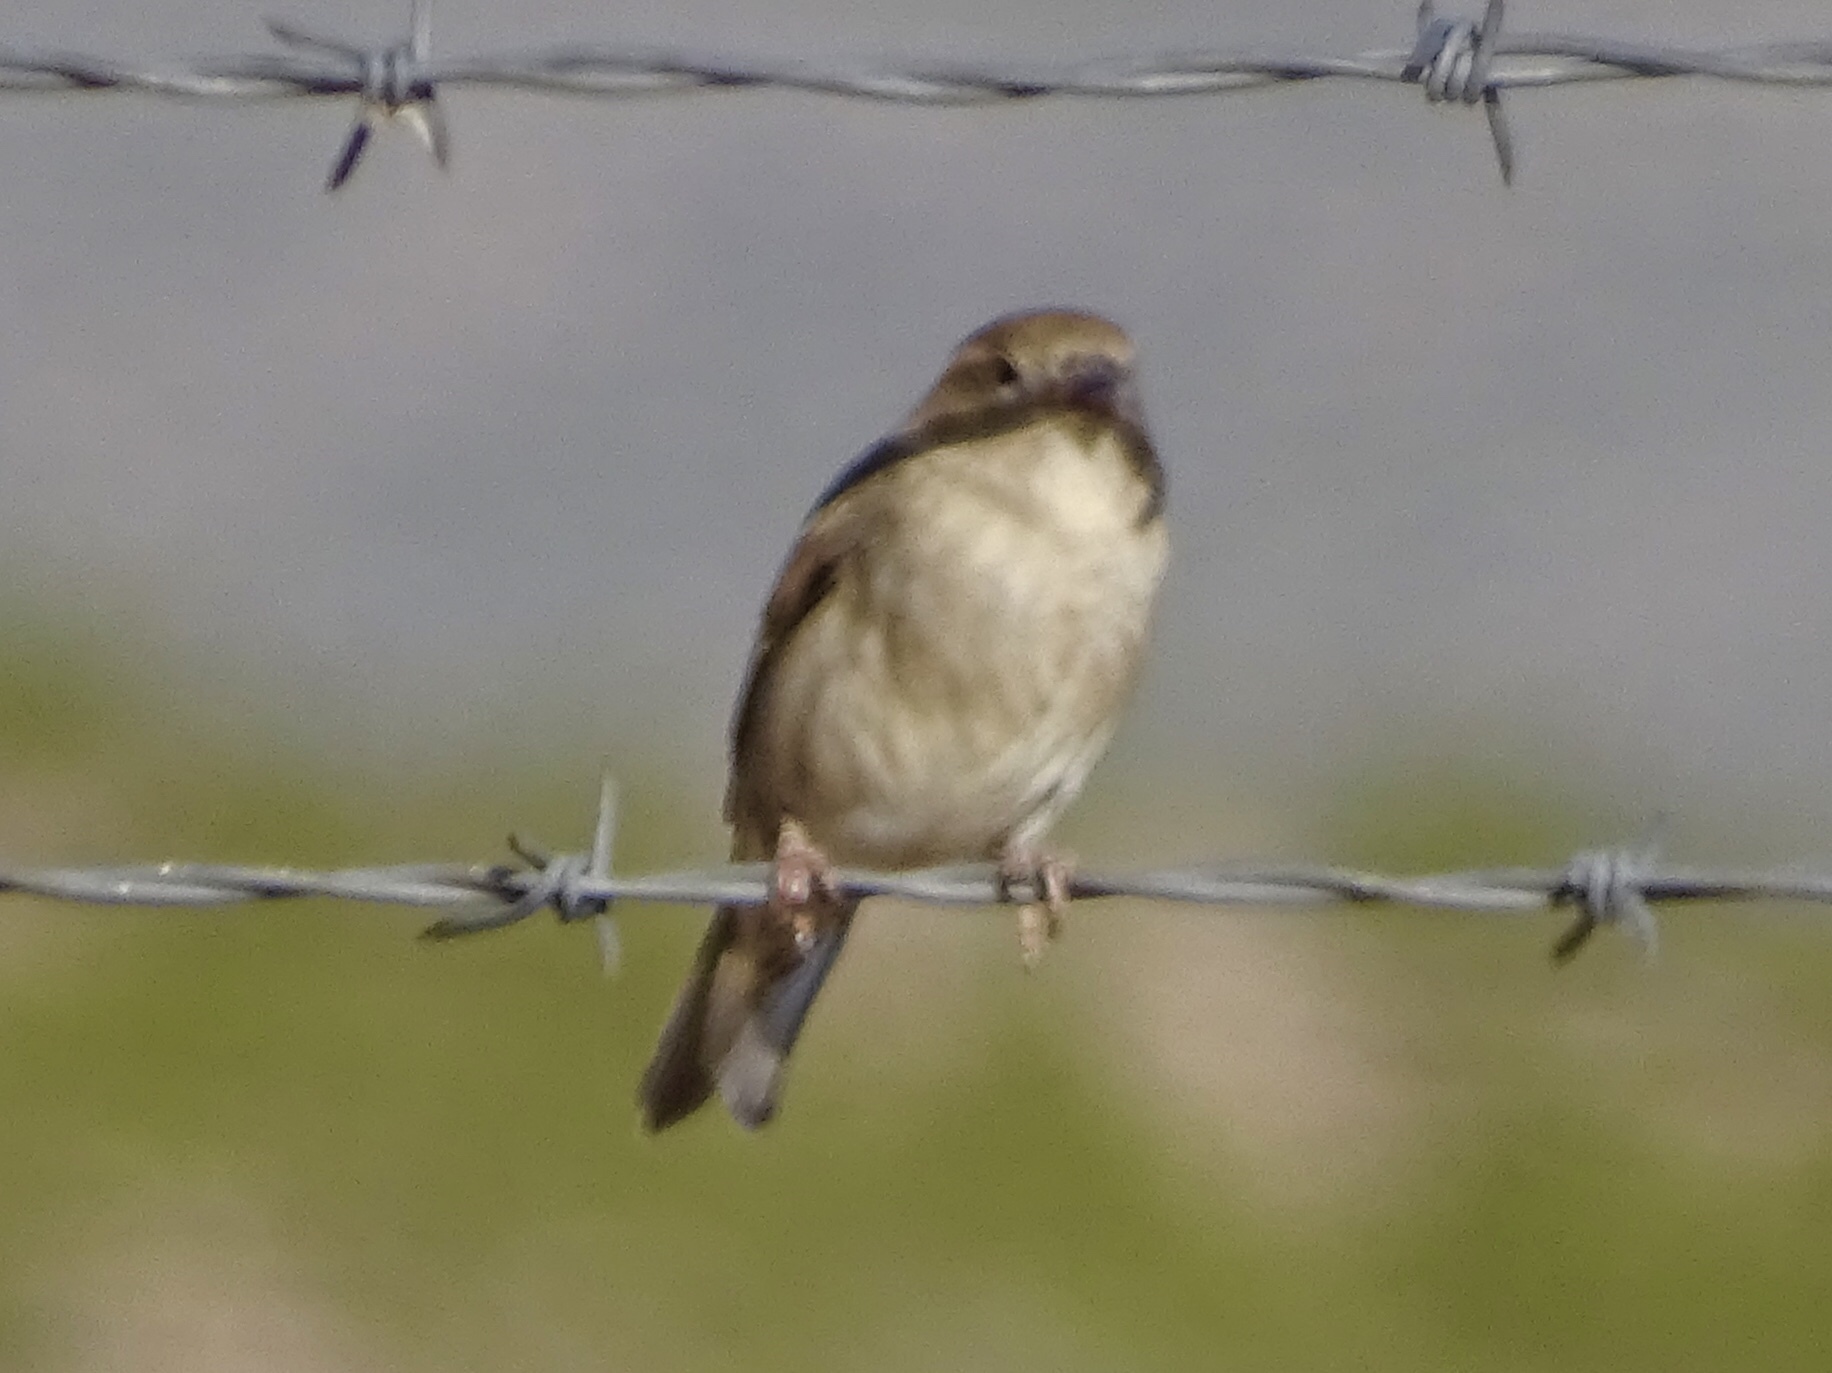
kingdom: Animalia
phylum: Chordata
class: Aves
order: Passeriformes
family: Passeridae
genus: Passer
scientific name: Passer domesticus
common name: House sparrow
